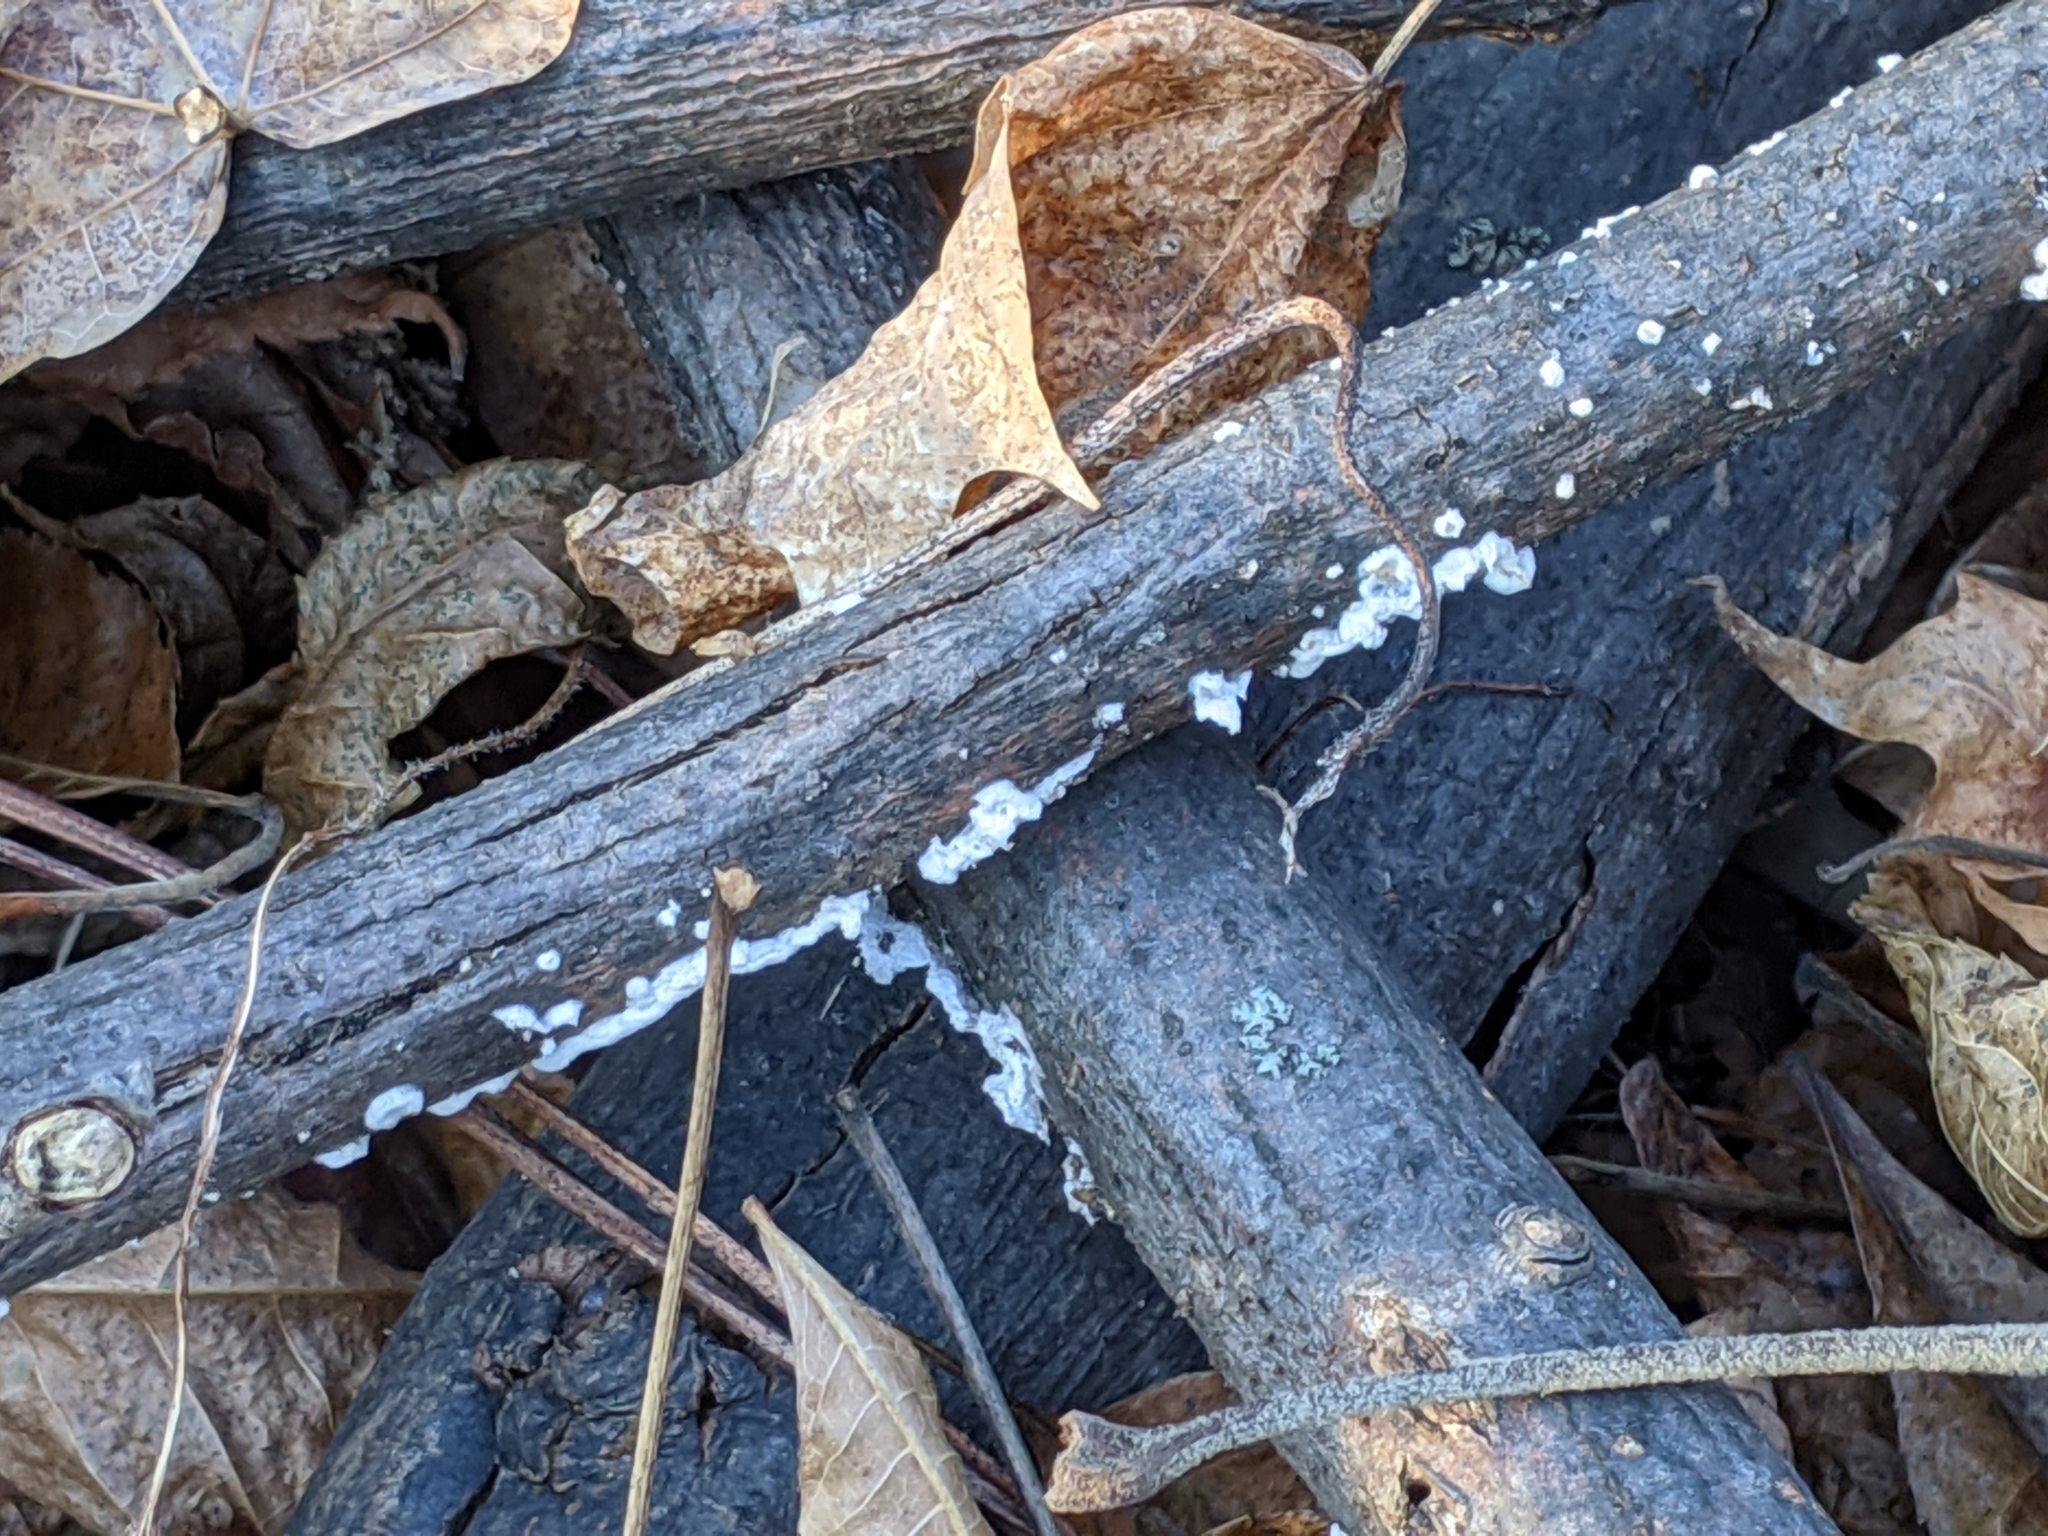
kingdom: Fungi
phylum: Basidiomycota
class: Agaricomycetes
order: Agaricales
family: Schizophyllaceae
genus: Schizophyllum
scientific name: Schizophyllum commune
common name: Common porecrust
